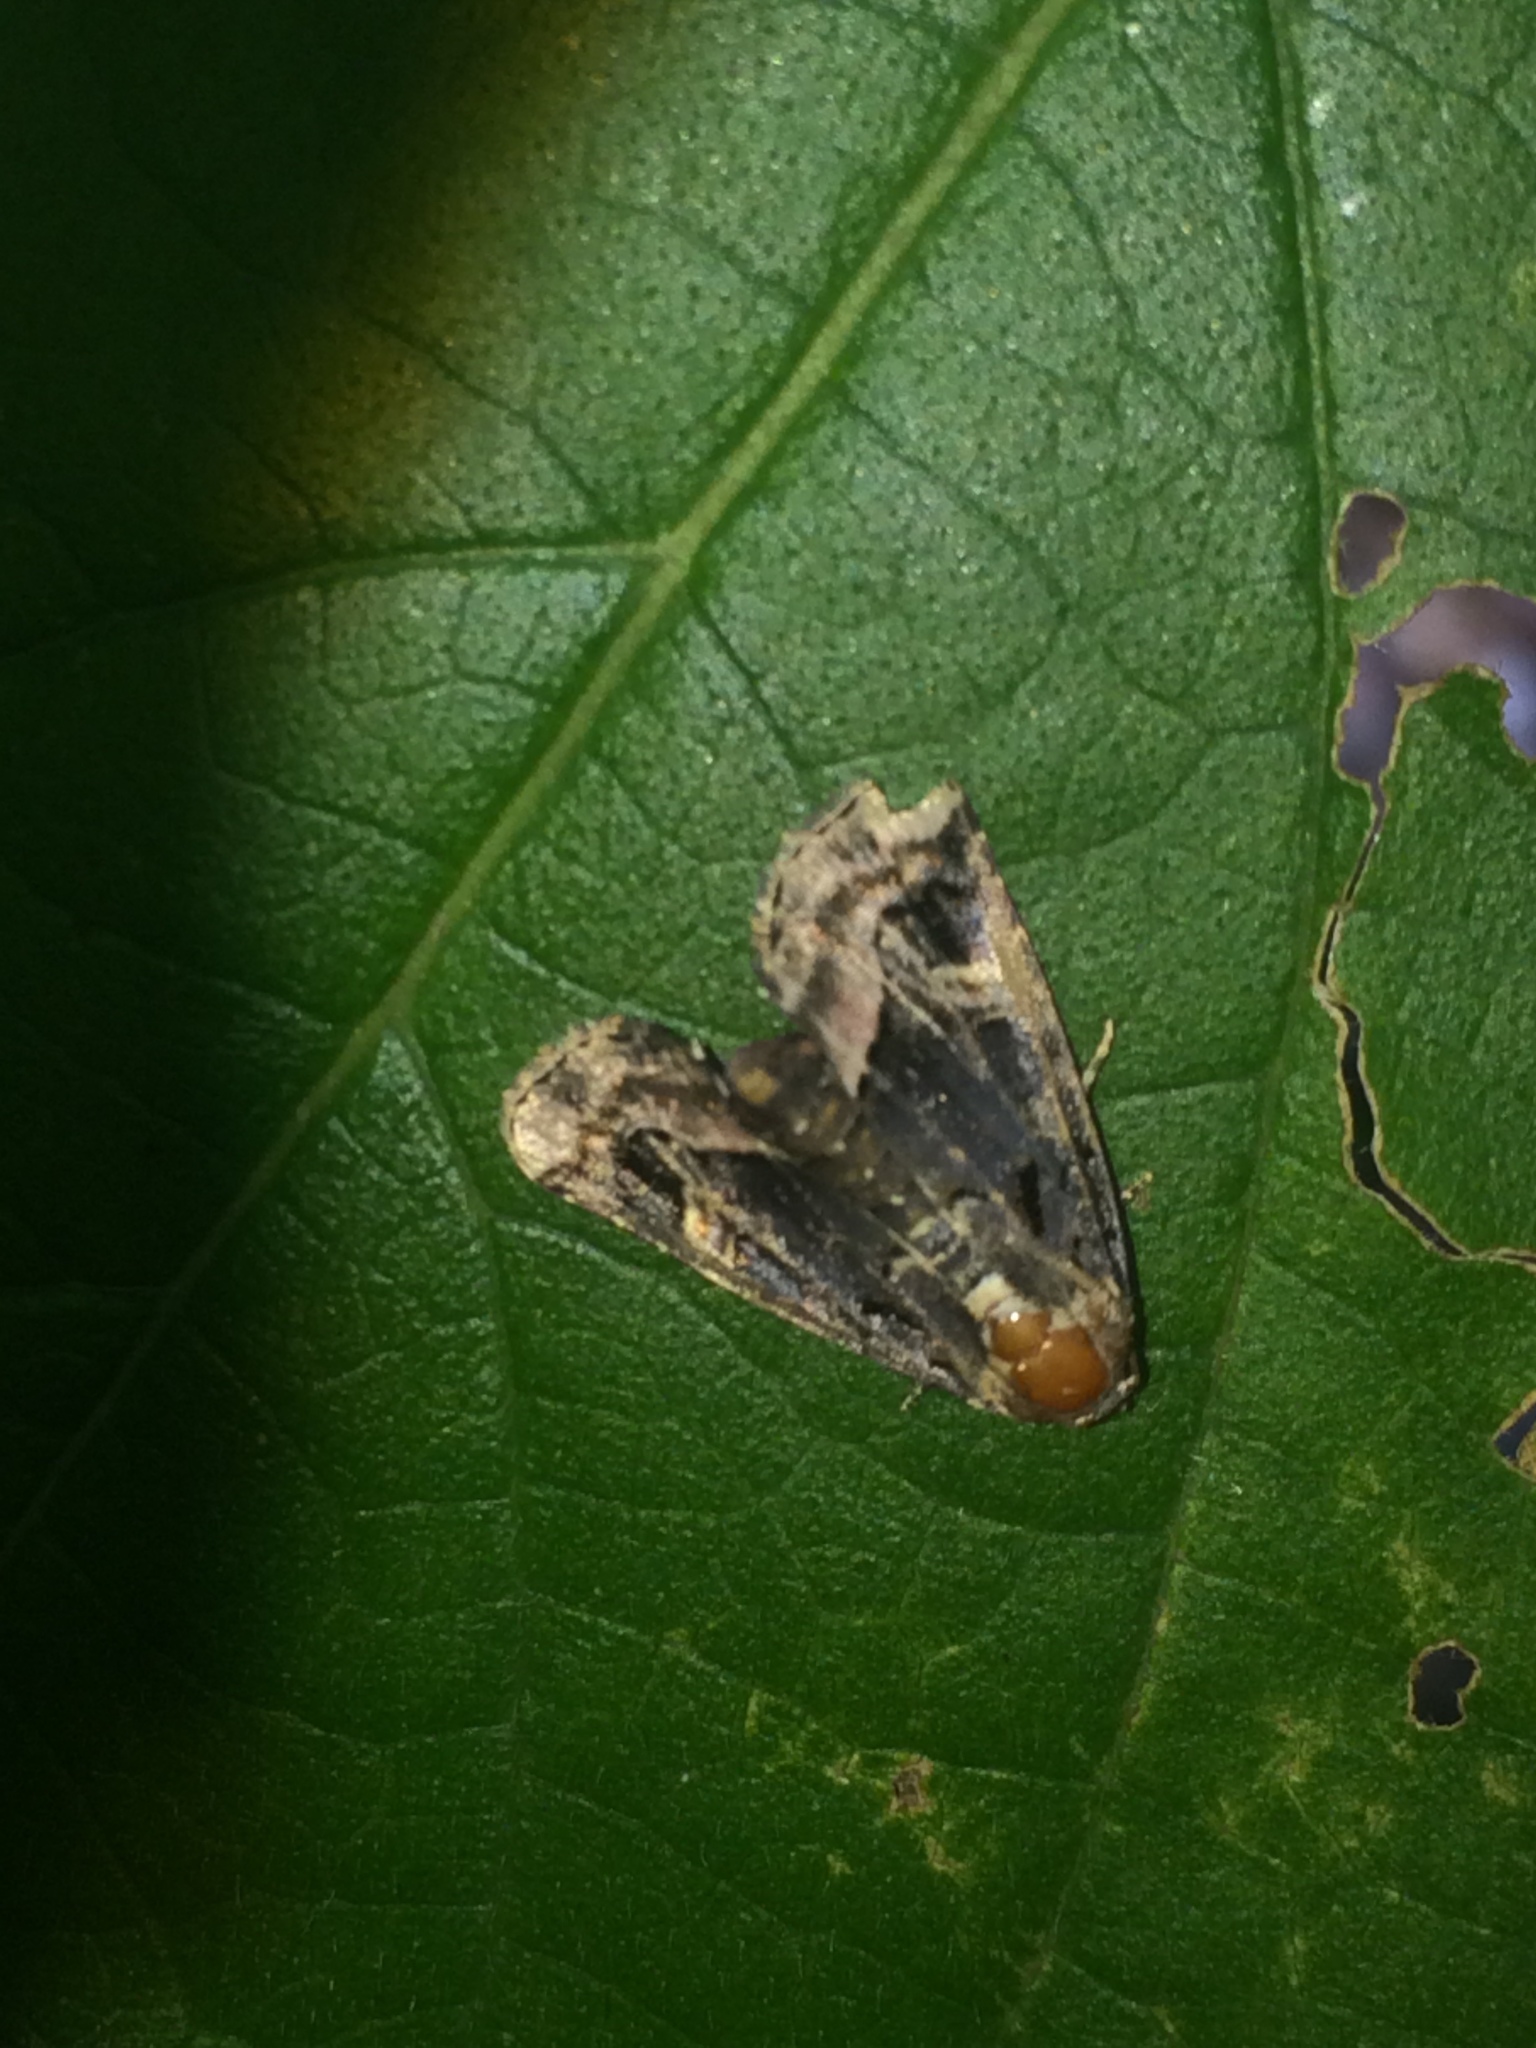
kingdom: Animalia
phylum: Arthropoda
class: Insecta
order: Lepidoptera
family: Noctuidae
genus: Homophoberia
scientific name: Homophoberia apicosa
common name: Black wedge-spot
